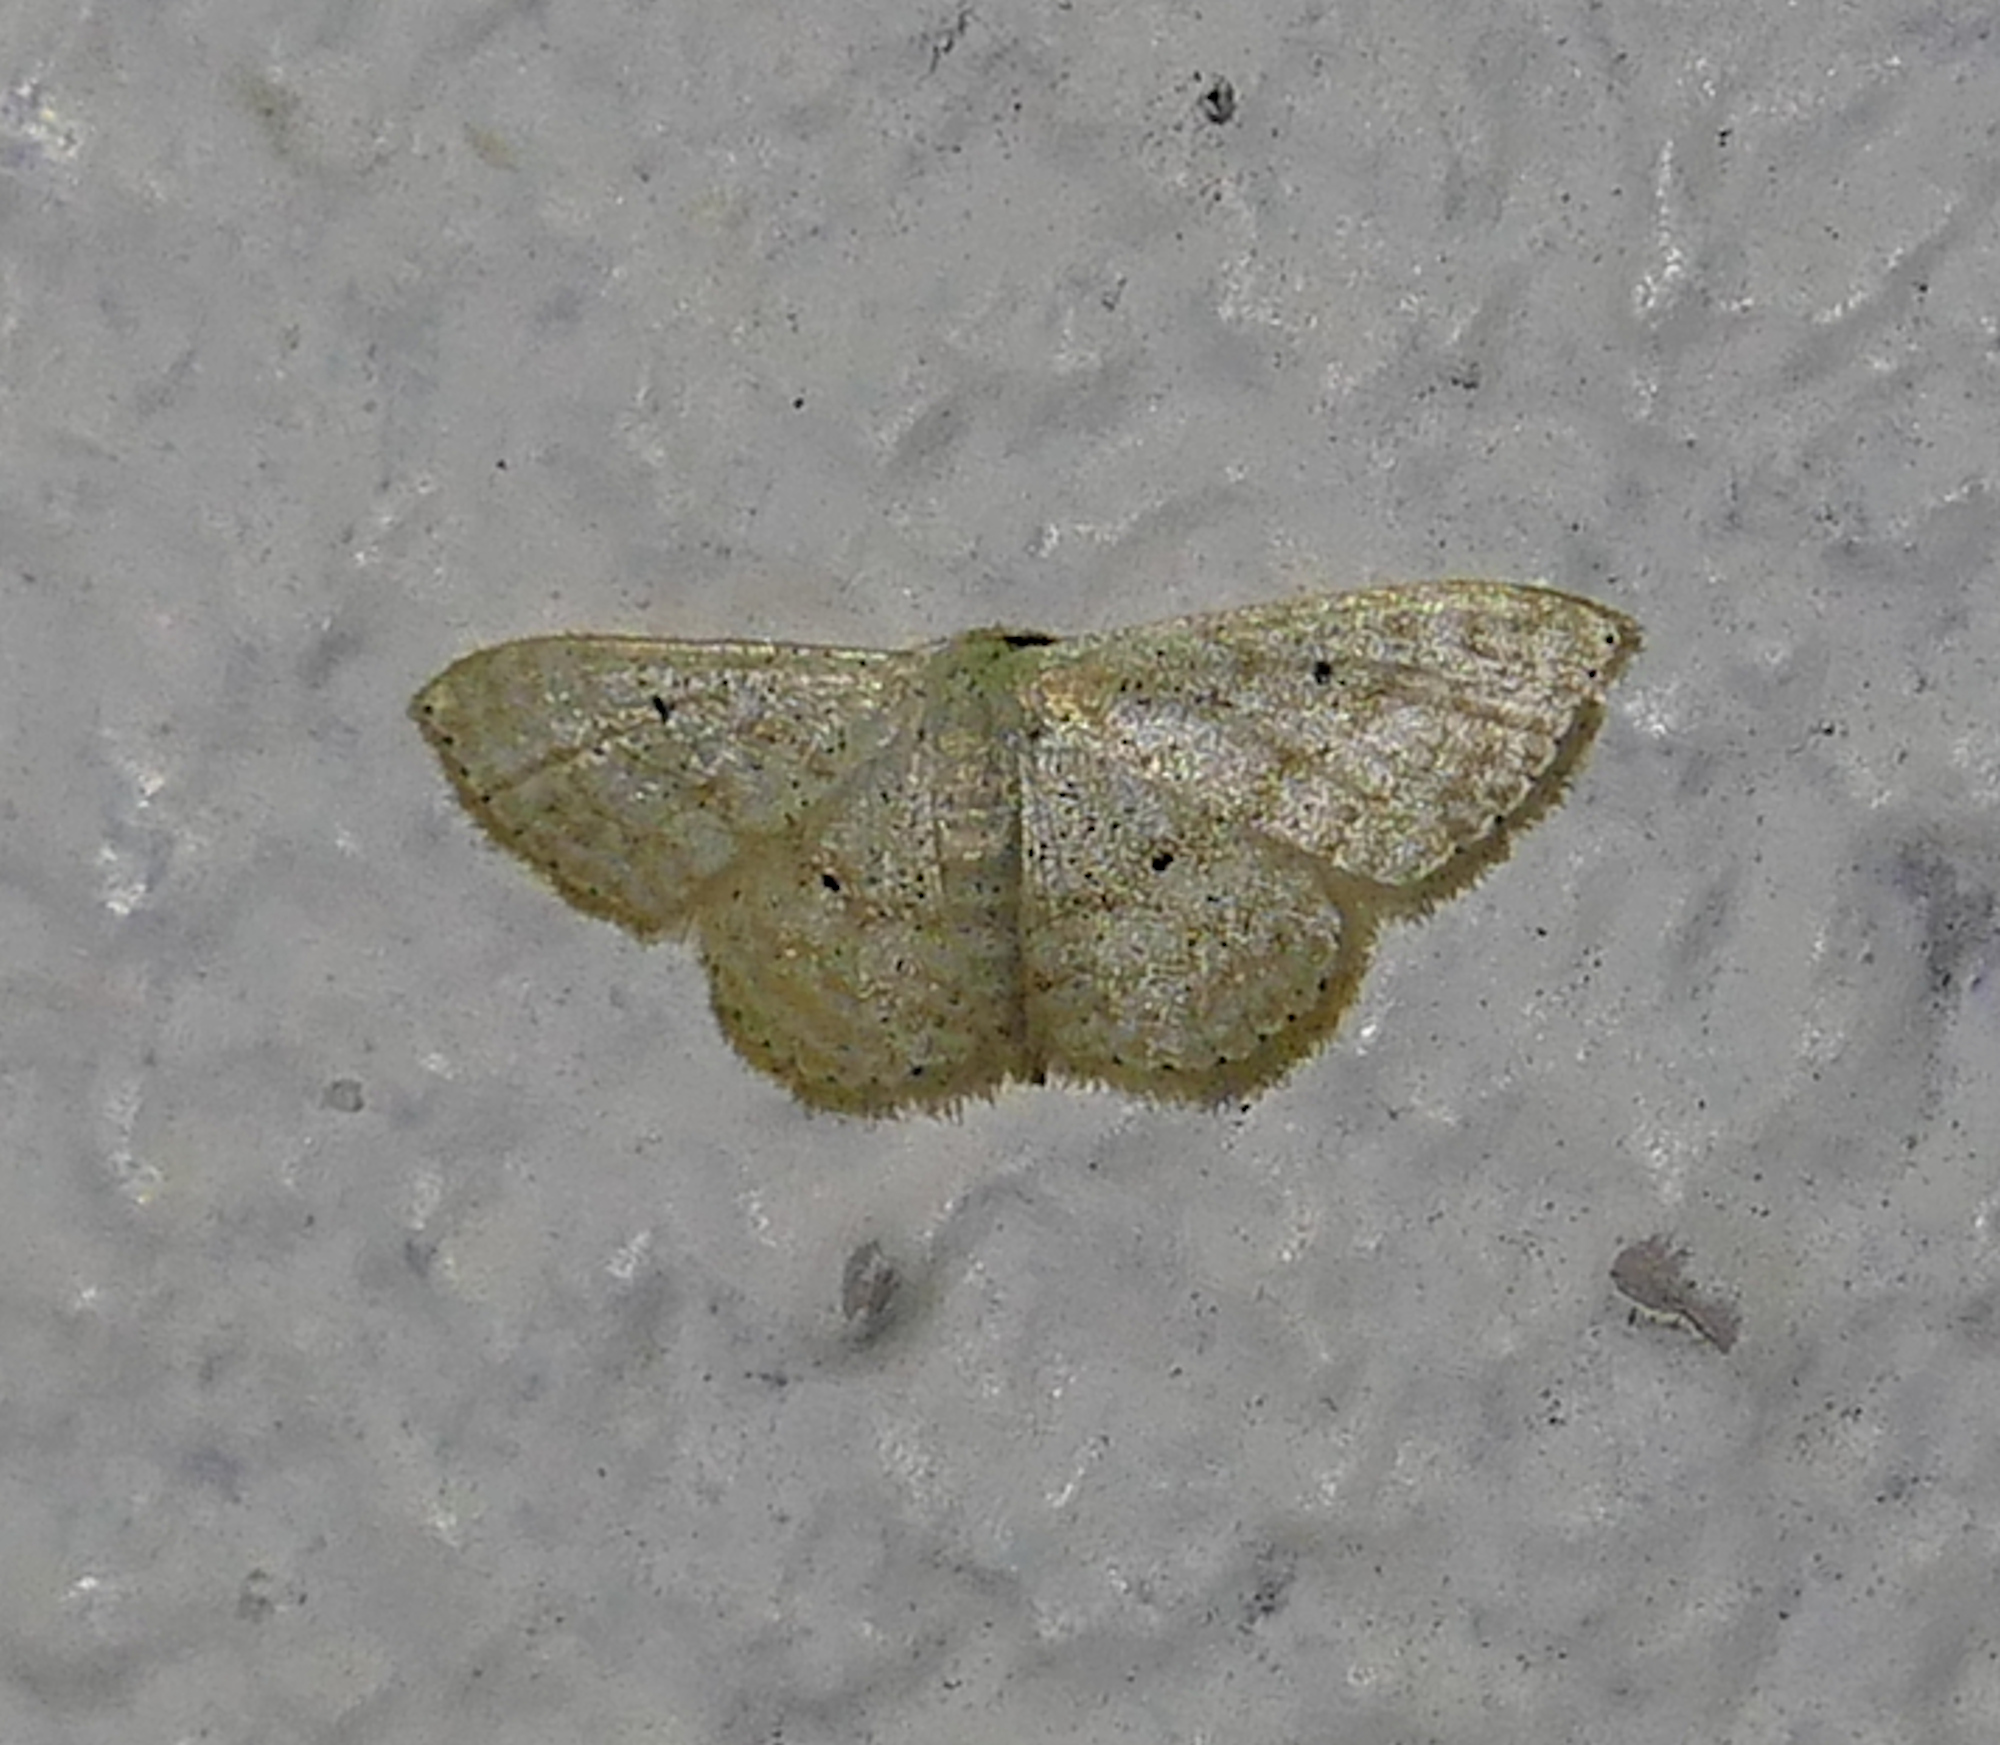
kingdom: Animalia
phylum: Arthropoda
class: Insecta
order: Lepidoptera
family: Geometridae
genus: Scopula
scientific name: Scopula benitaria
